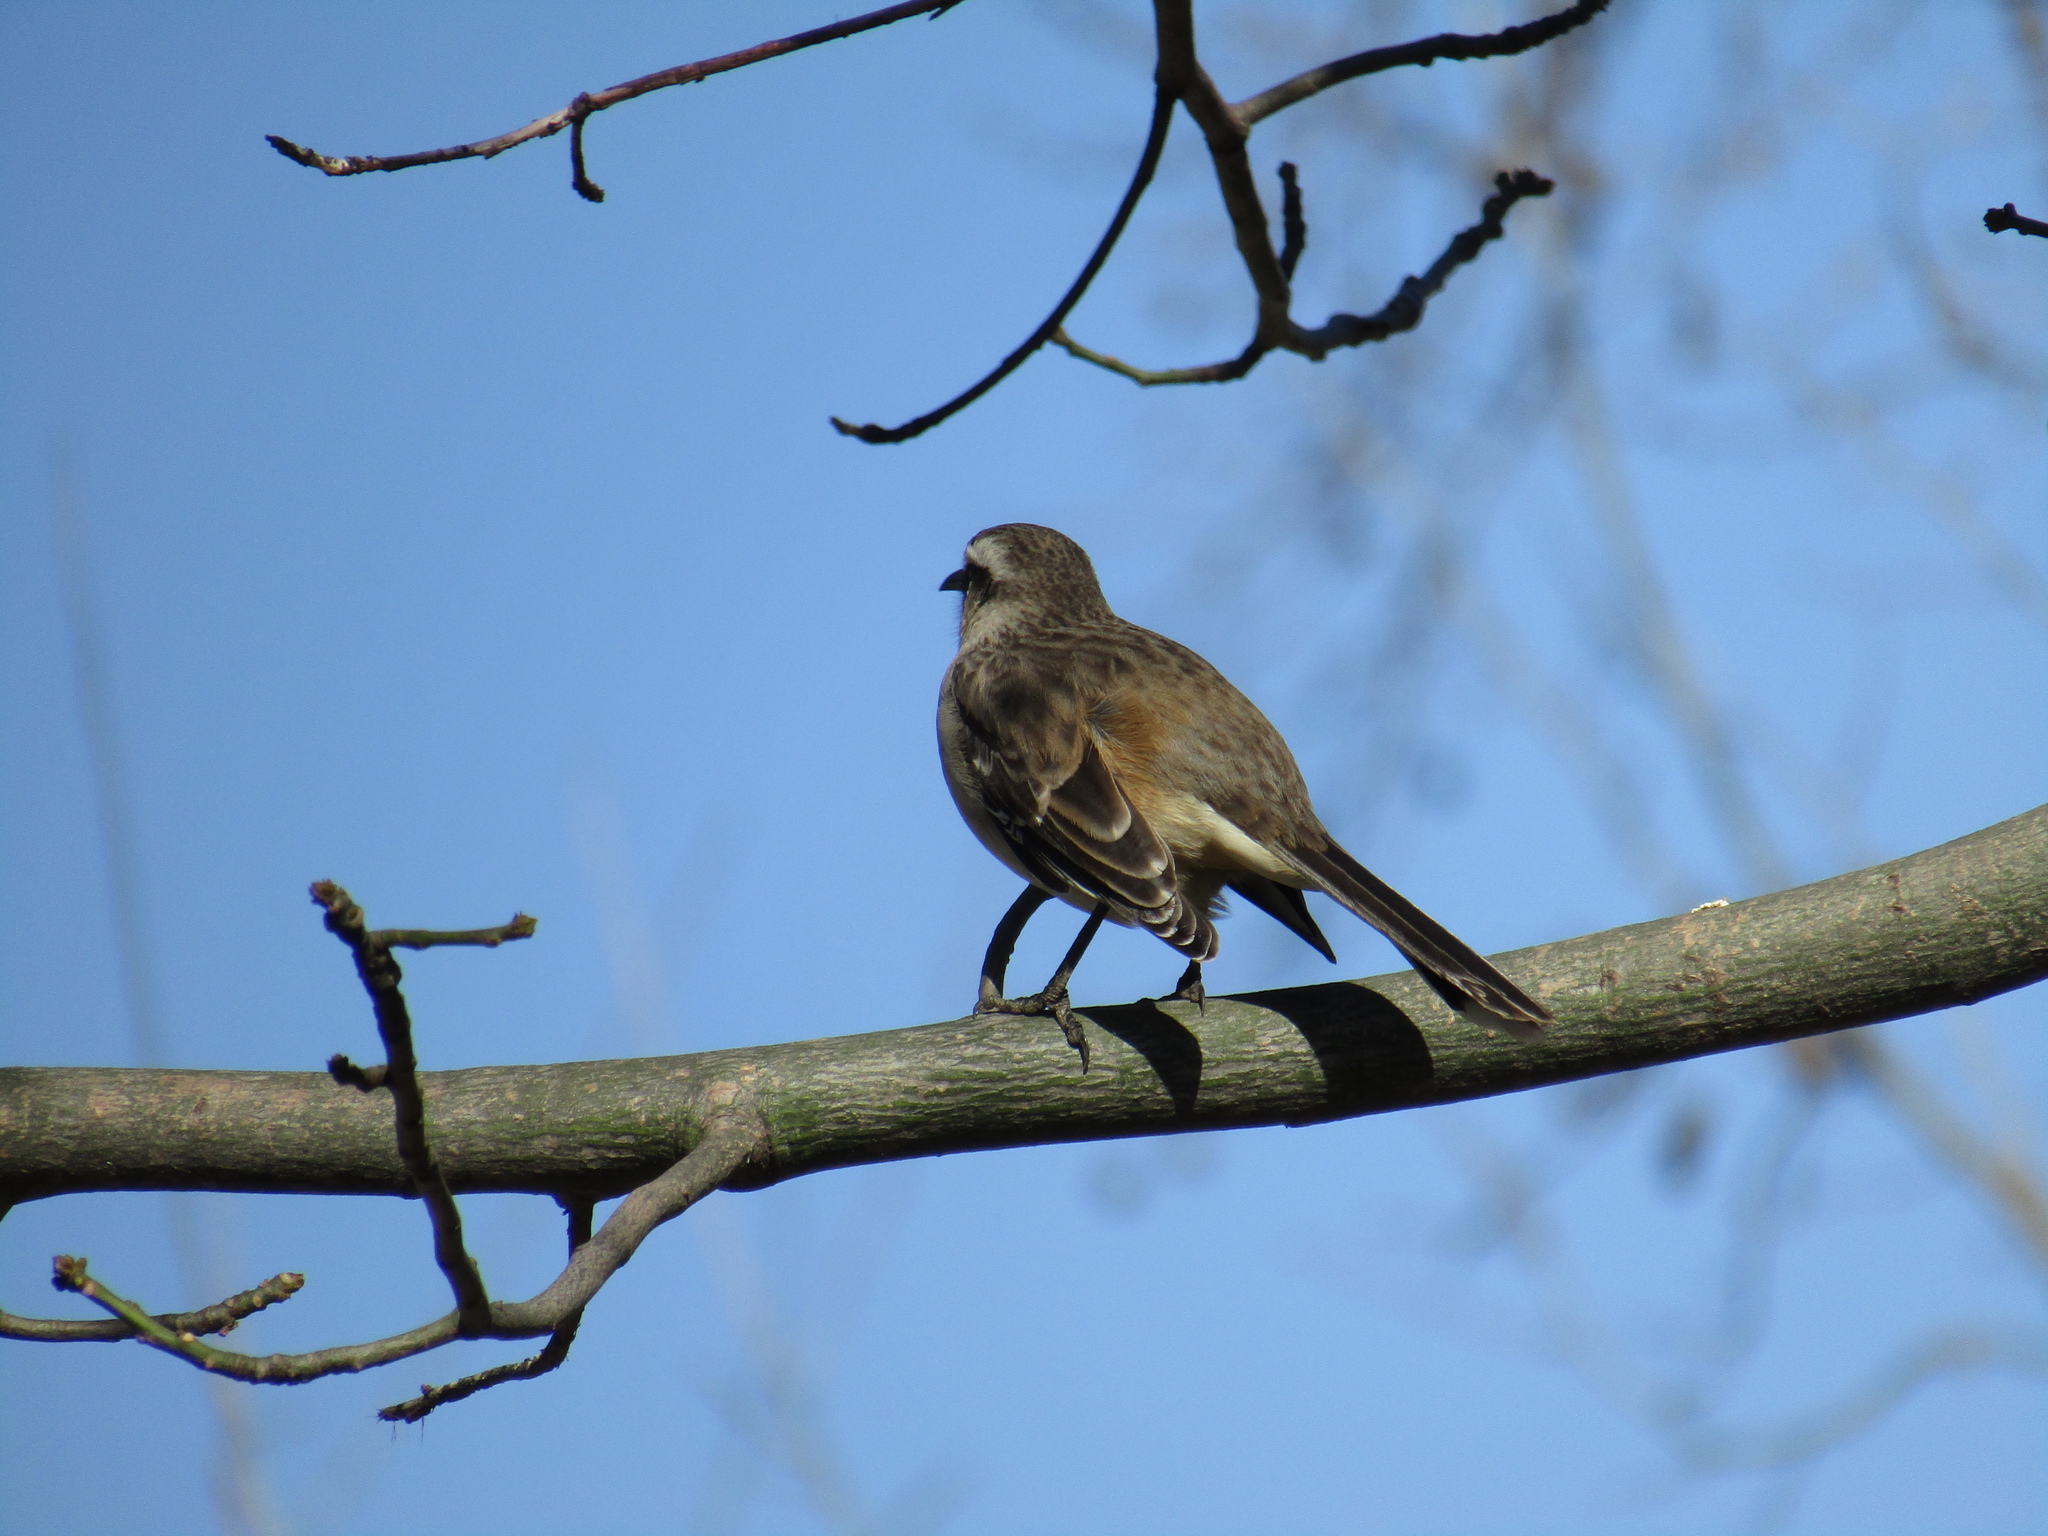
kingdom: Animalia
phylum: Chordata
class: Aves
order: Passeriformes
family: Mimidae
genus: Mimus
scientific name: Mimus saturninus
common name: Chalk-browed mockingbird
